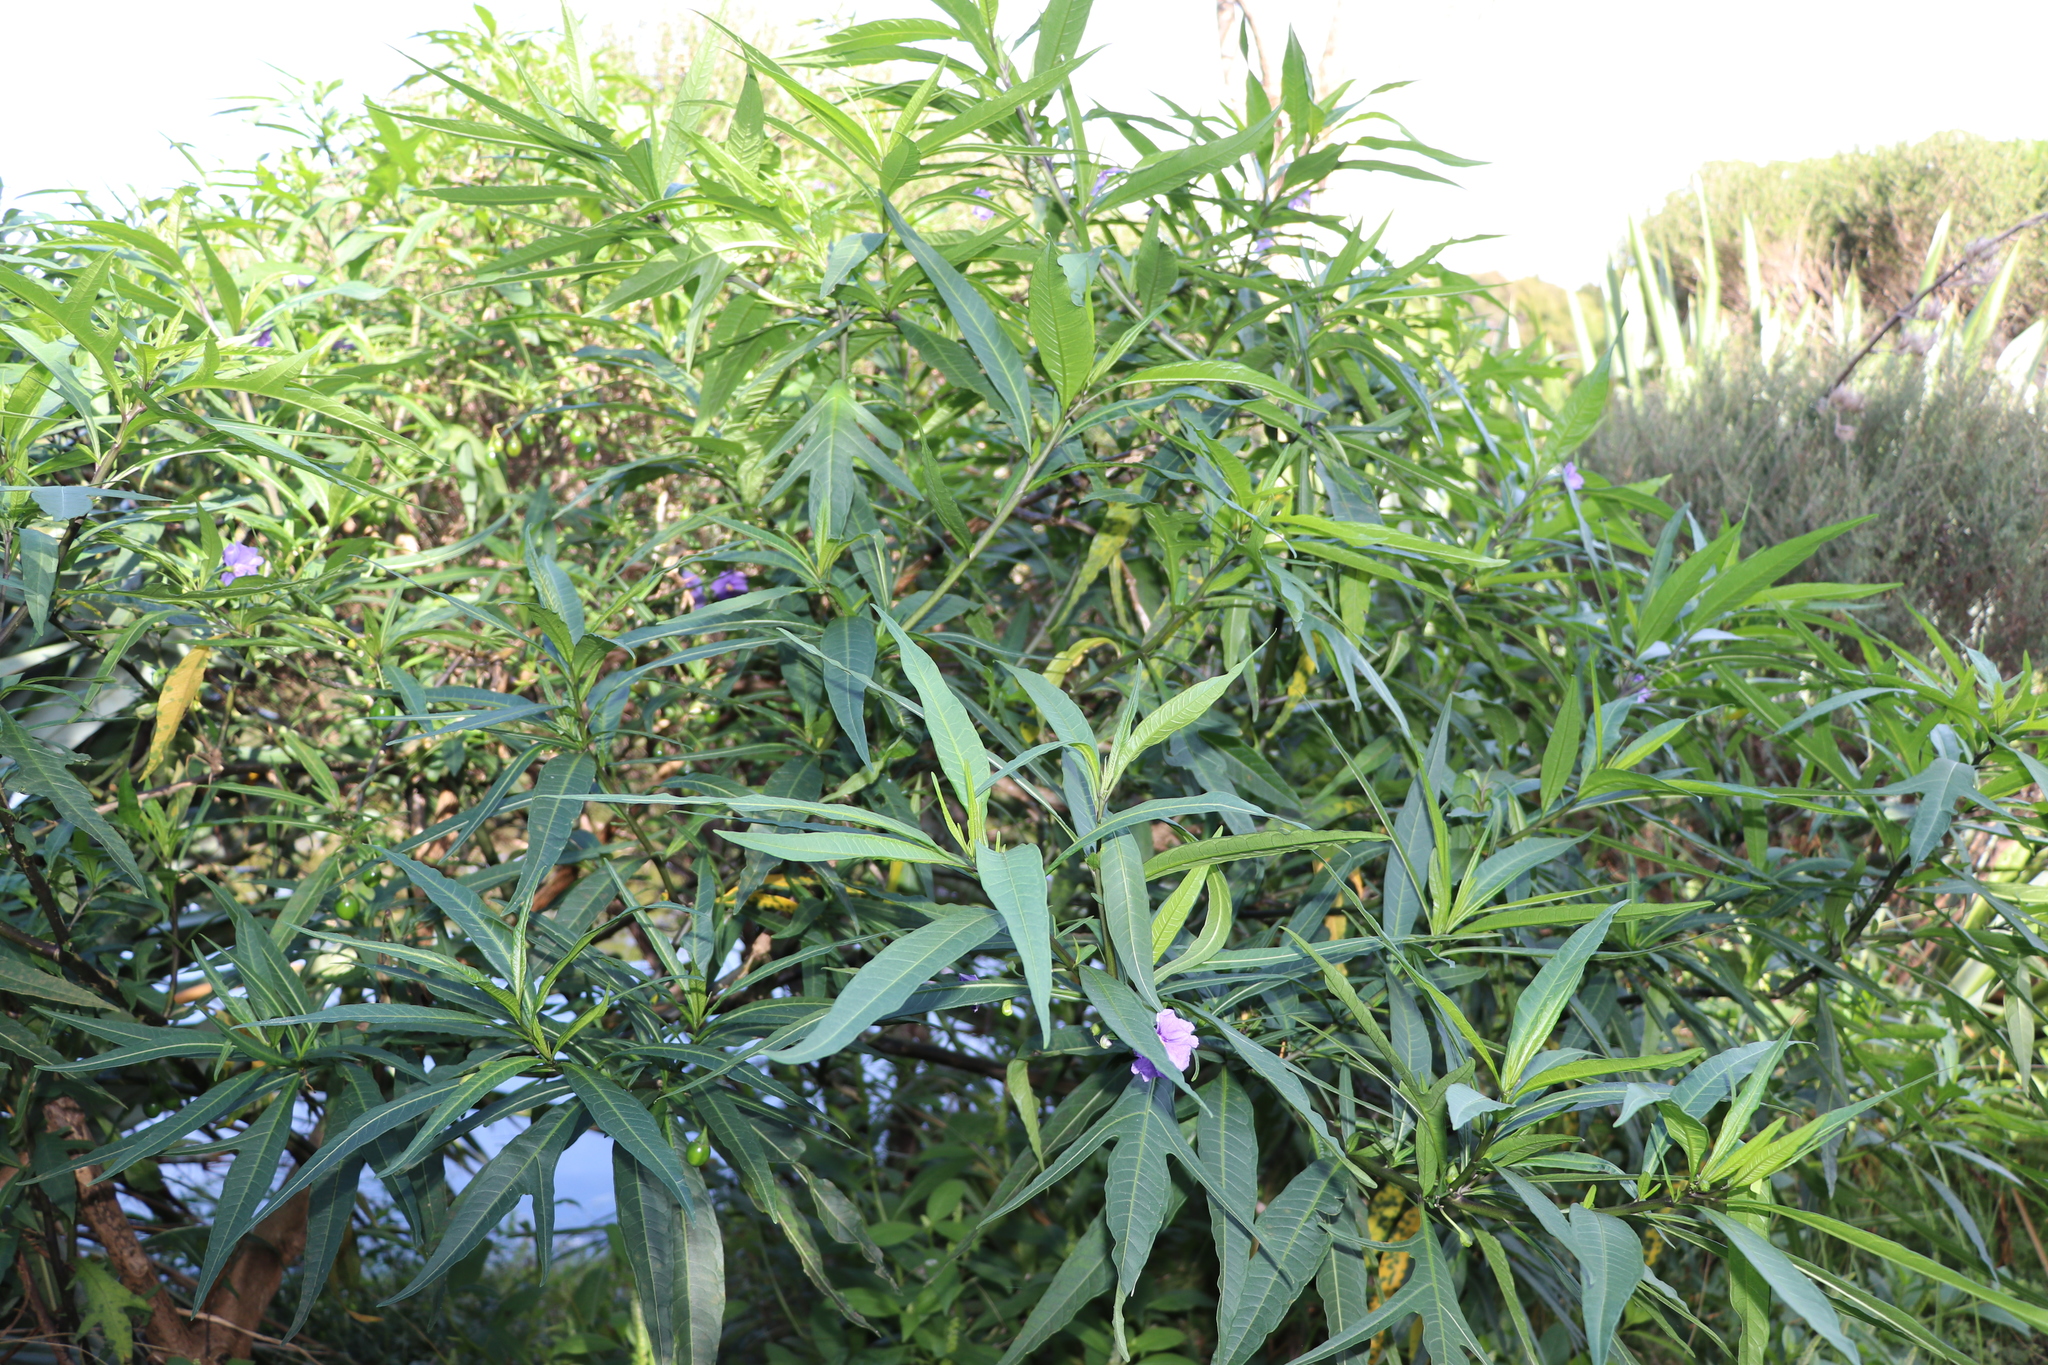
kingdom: Plantae
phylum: Tracheophyta
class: Magnoliopsida
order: Solanales
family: Solanaceae
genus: Solanum
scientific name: Solanum laciniatum
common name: Kangaroo-apple
